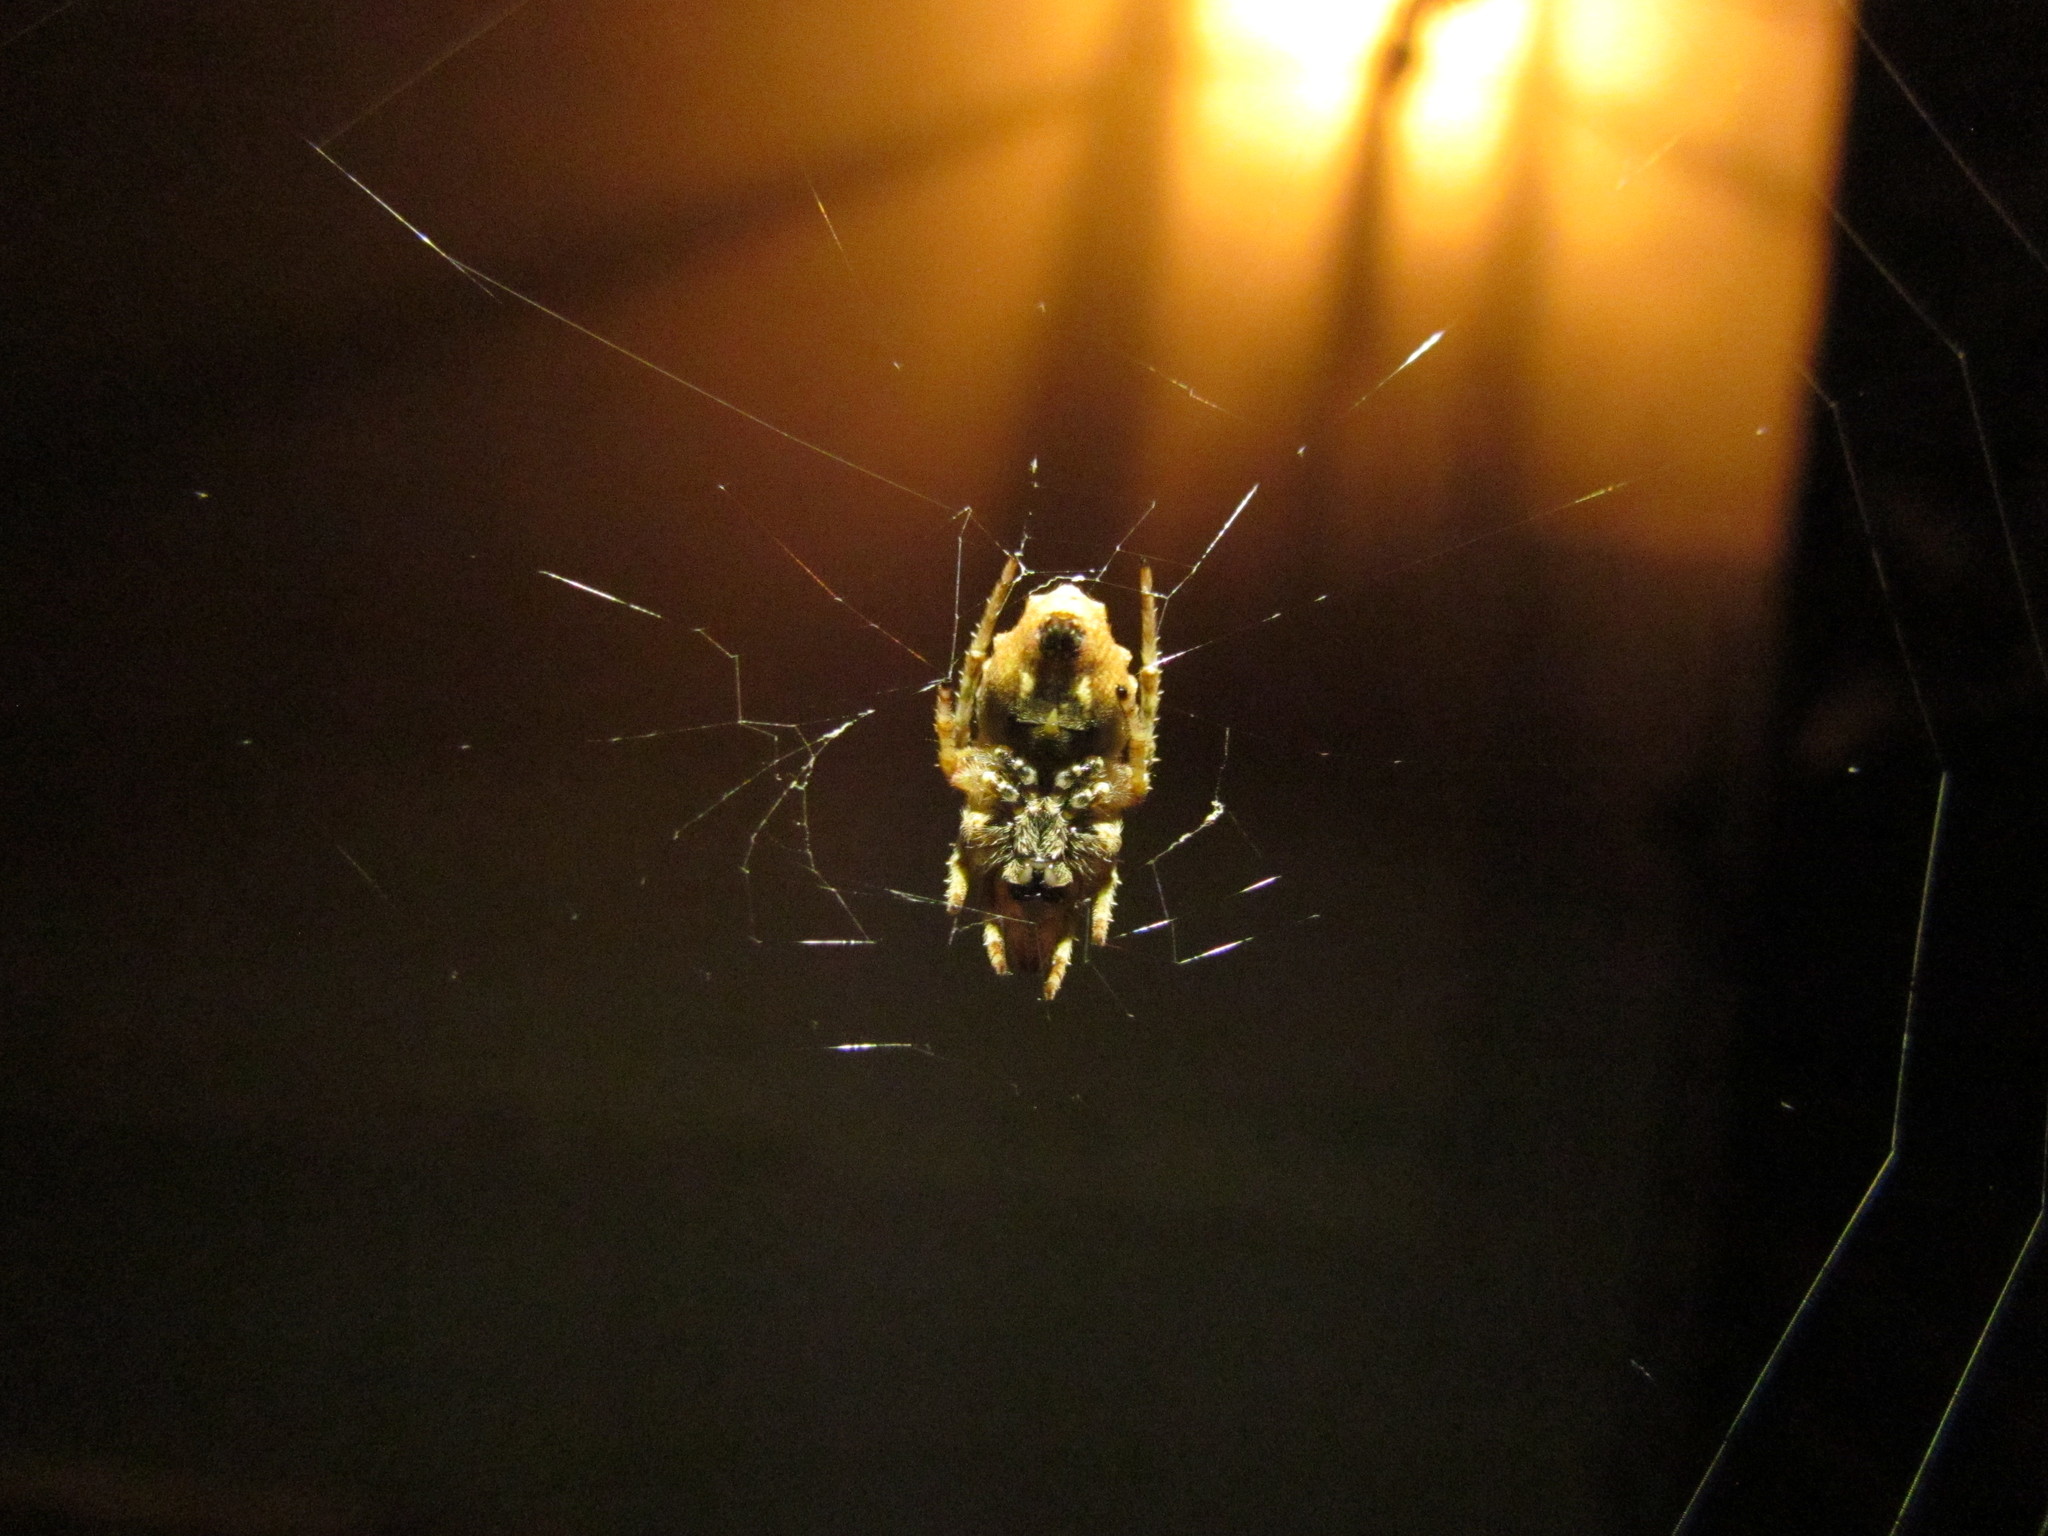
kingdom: Animalia
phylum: Arthropoda
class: Arachnida
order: Araneae
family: Araneidae
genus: Parawixia
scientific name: Parawixia audax
